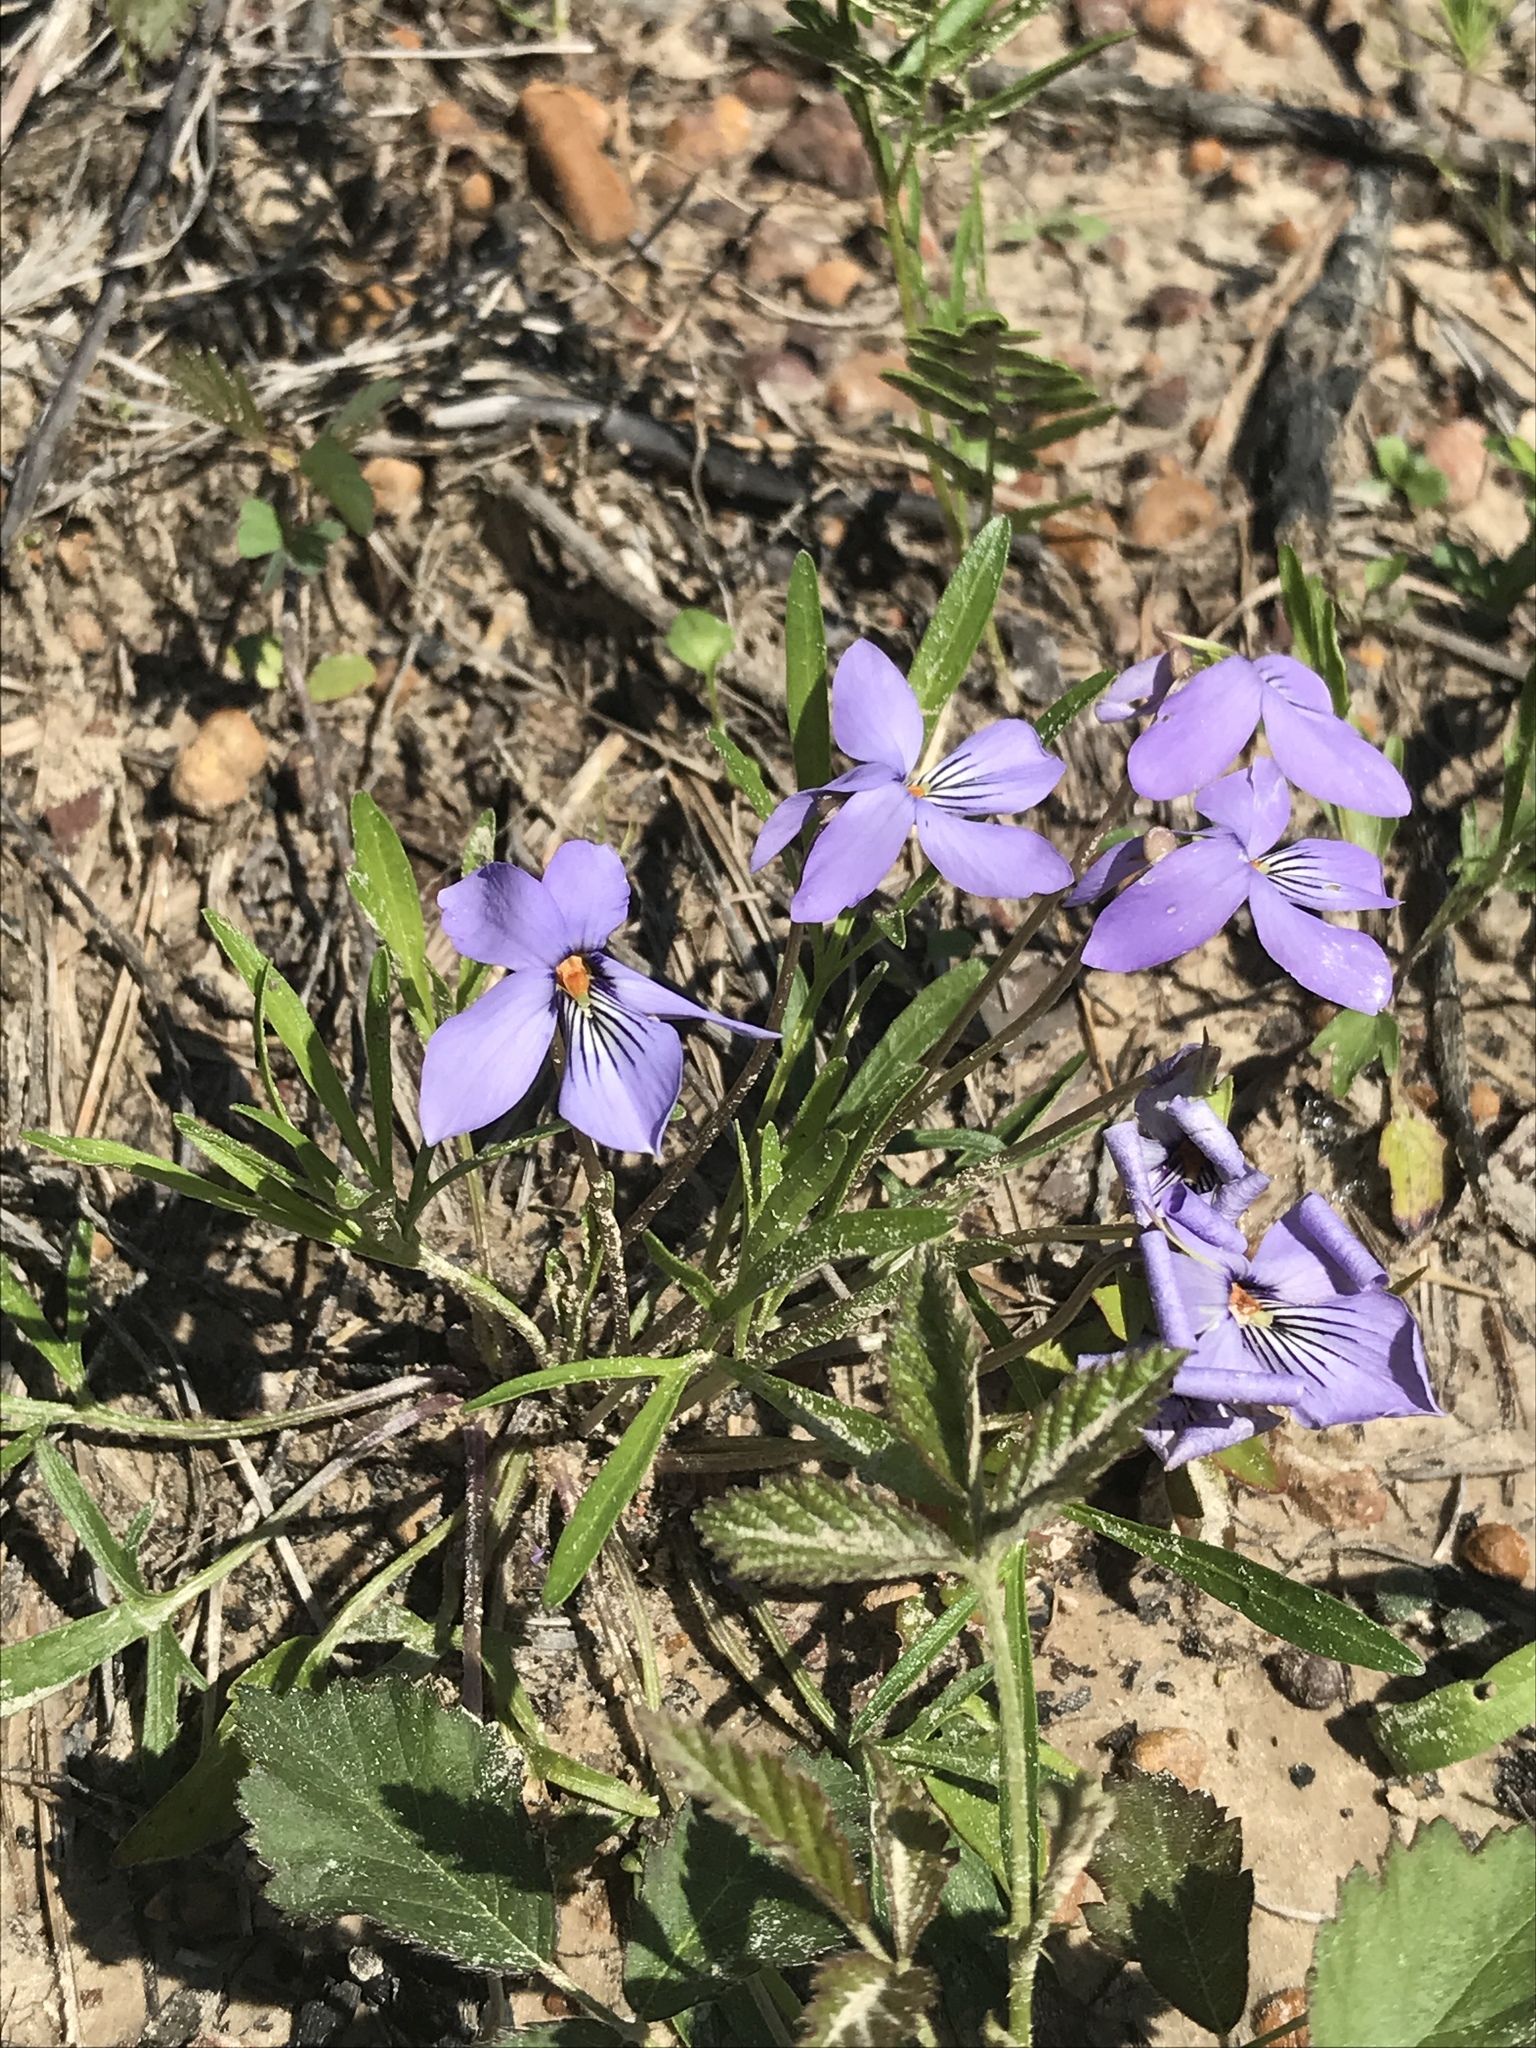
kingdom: Plantae
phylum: Tracheophyta
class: Magnoliopsida
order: Malpighiales
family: Violaceae
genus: Viola
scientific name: Viola pedata
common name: Pansy violet
